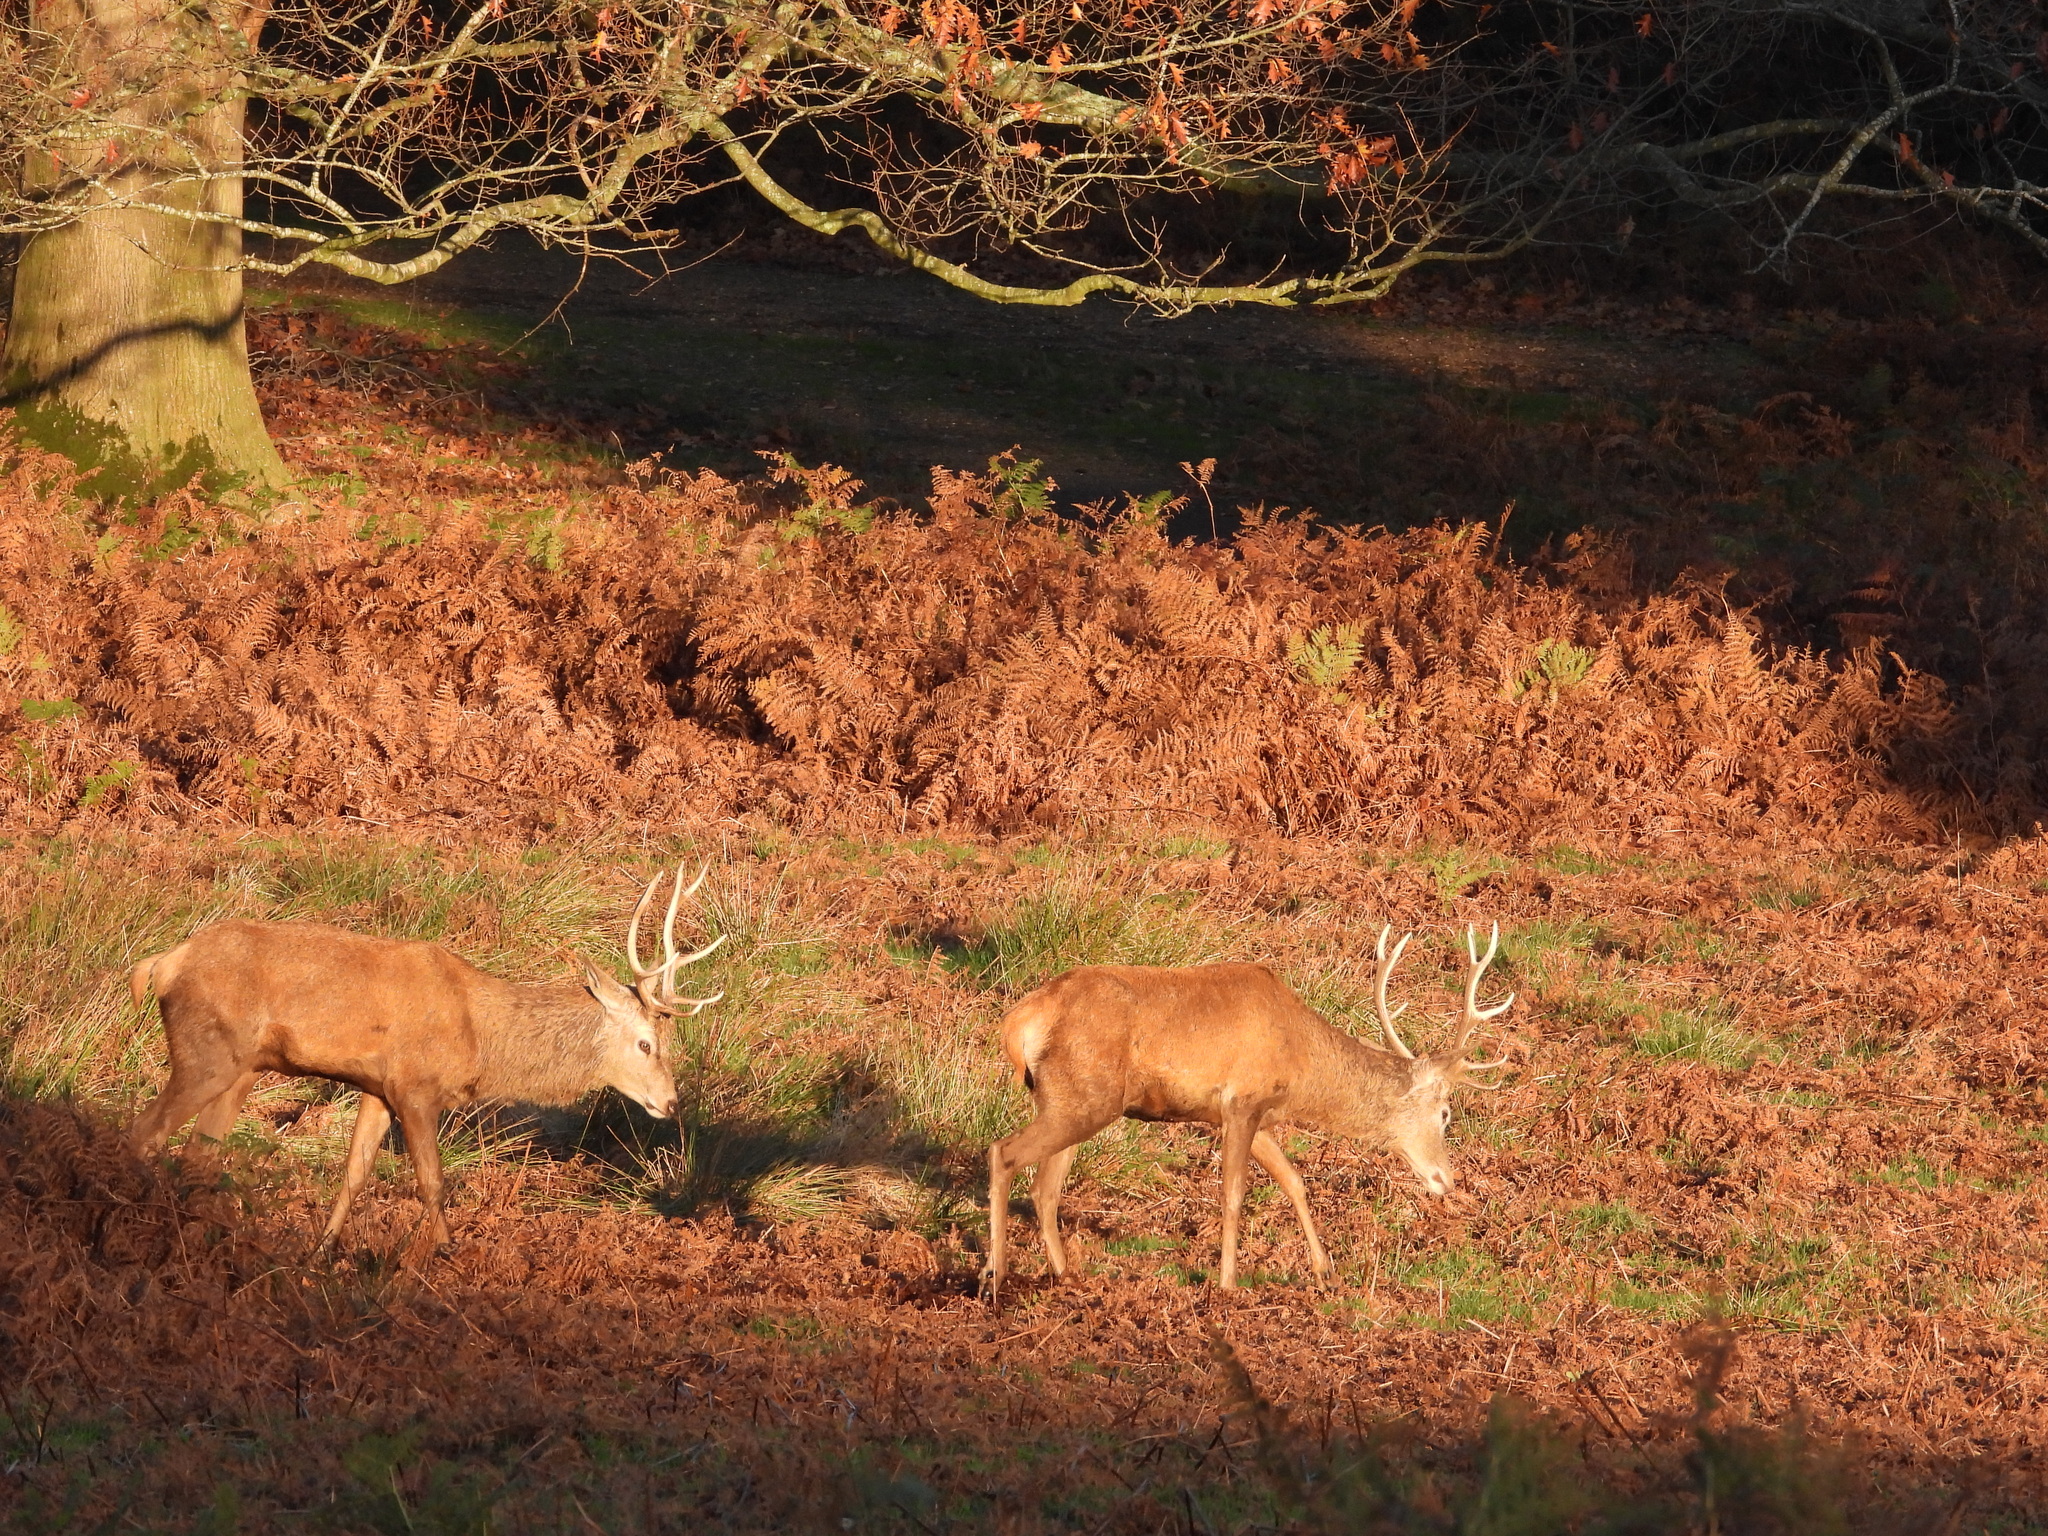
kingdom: Animalia
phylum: Chordata
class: Mammalia
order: Artiodactyla
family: Cervidae
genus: Cervus
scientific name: Cervus elaphus
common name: Red deer
